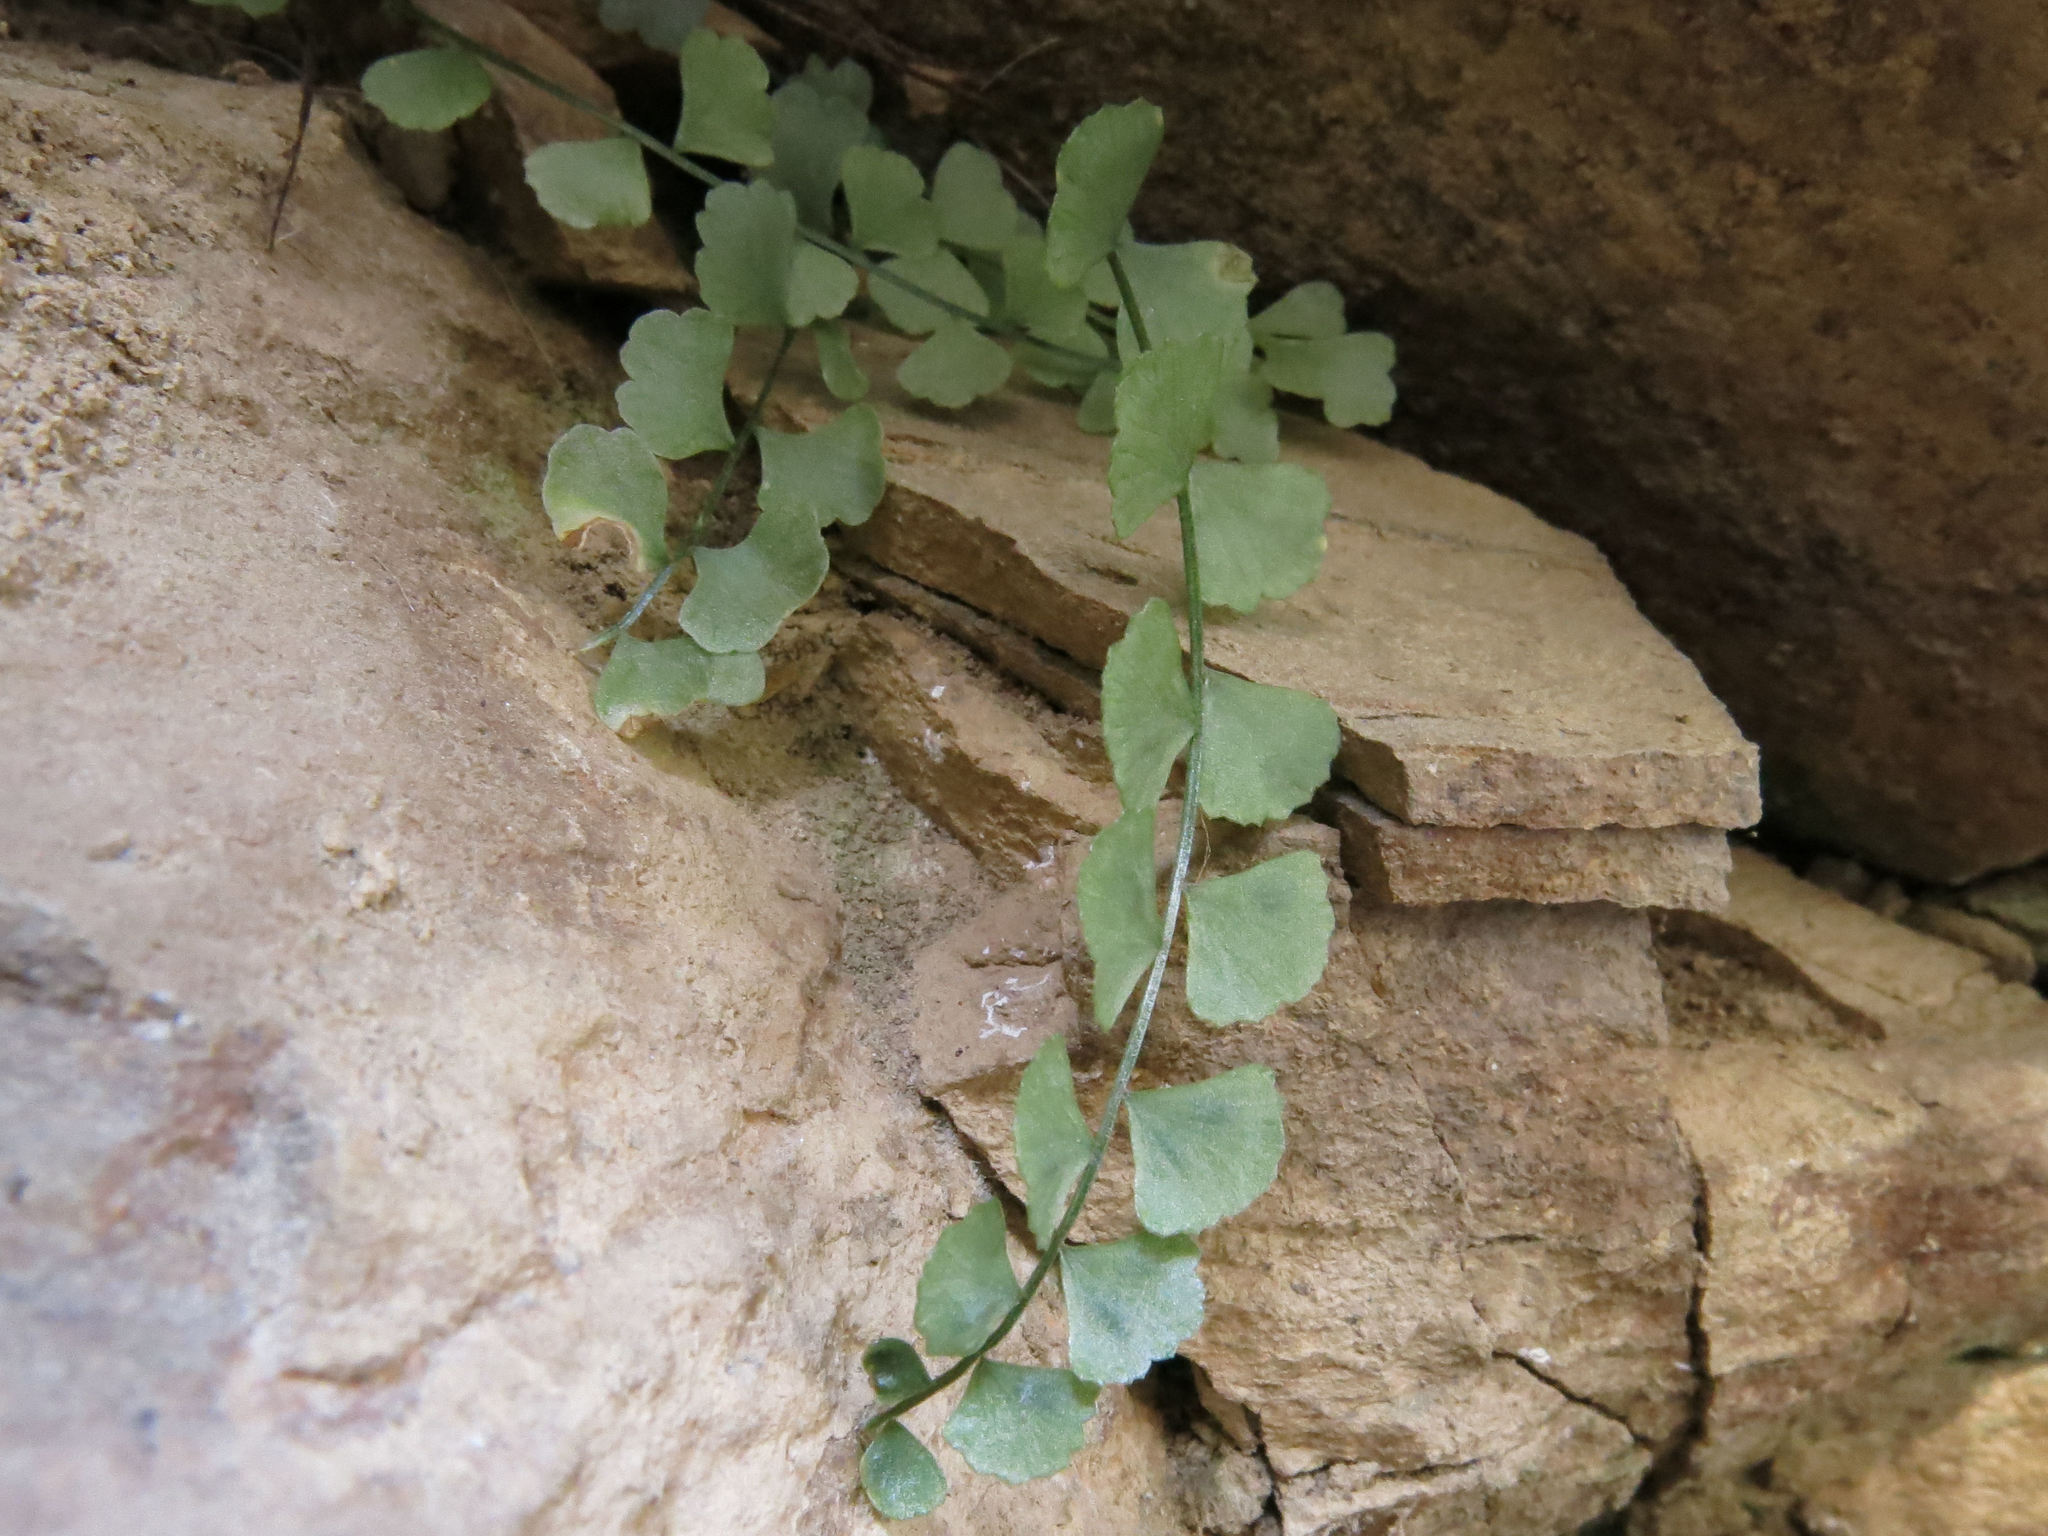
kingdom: Plantae
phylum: Tracheophyta
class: Polypodiopsida
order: Polypodiales
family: Aspleniaceae
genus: Asplenium
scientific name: Asplenium flabellifolium
